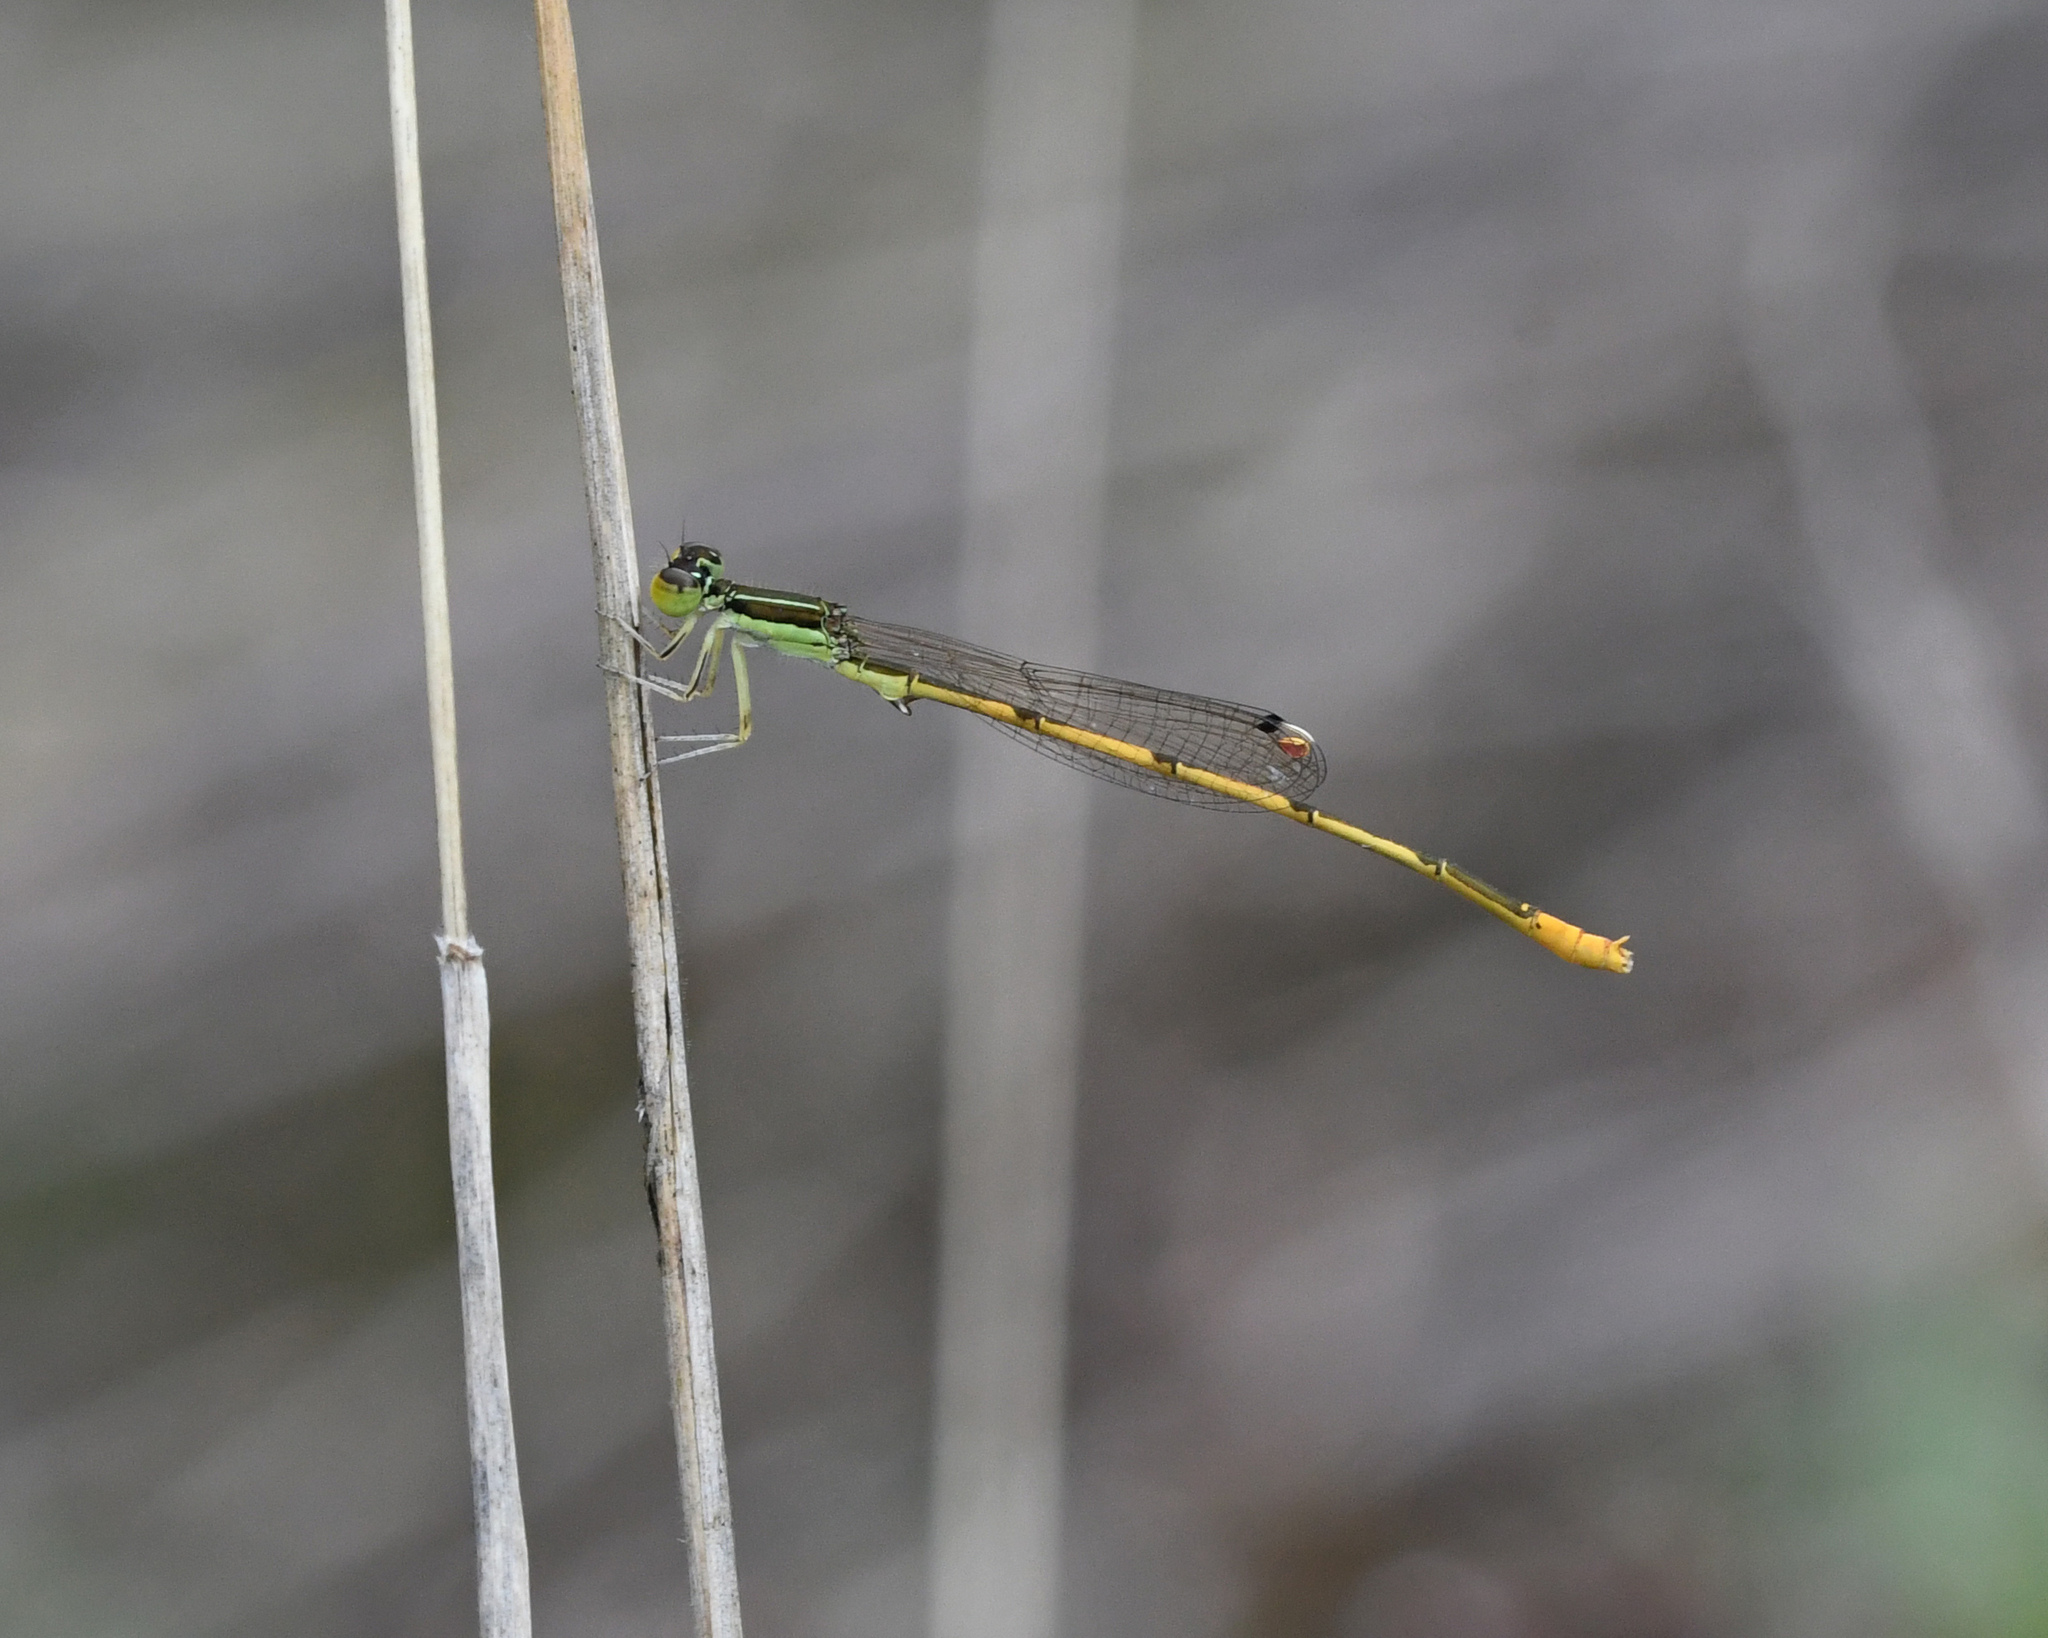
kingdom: Animalia
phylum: Arthropoda
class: Insecta
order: Odonata
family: Coenagrionidae
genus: Ischnura
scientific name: Ischnura hastata
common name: Citrine forktail
